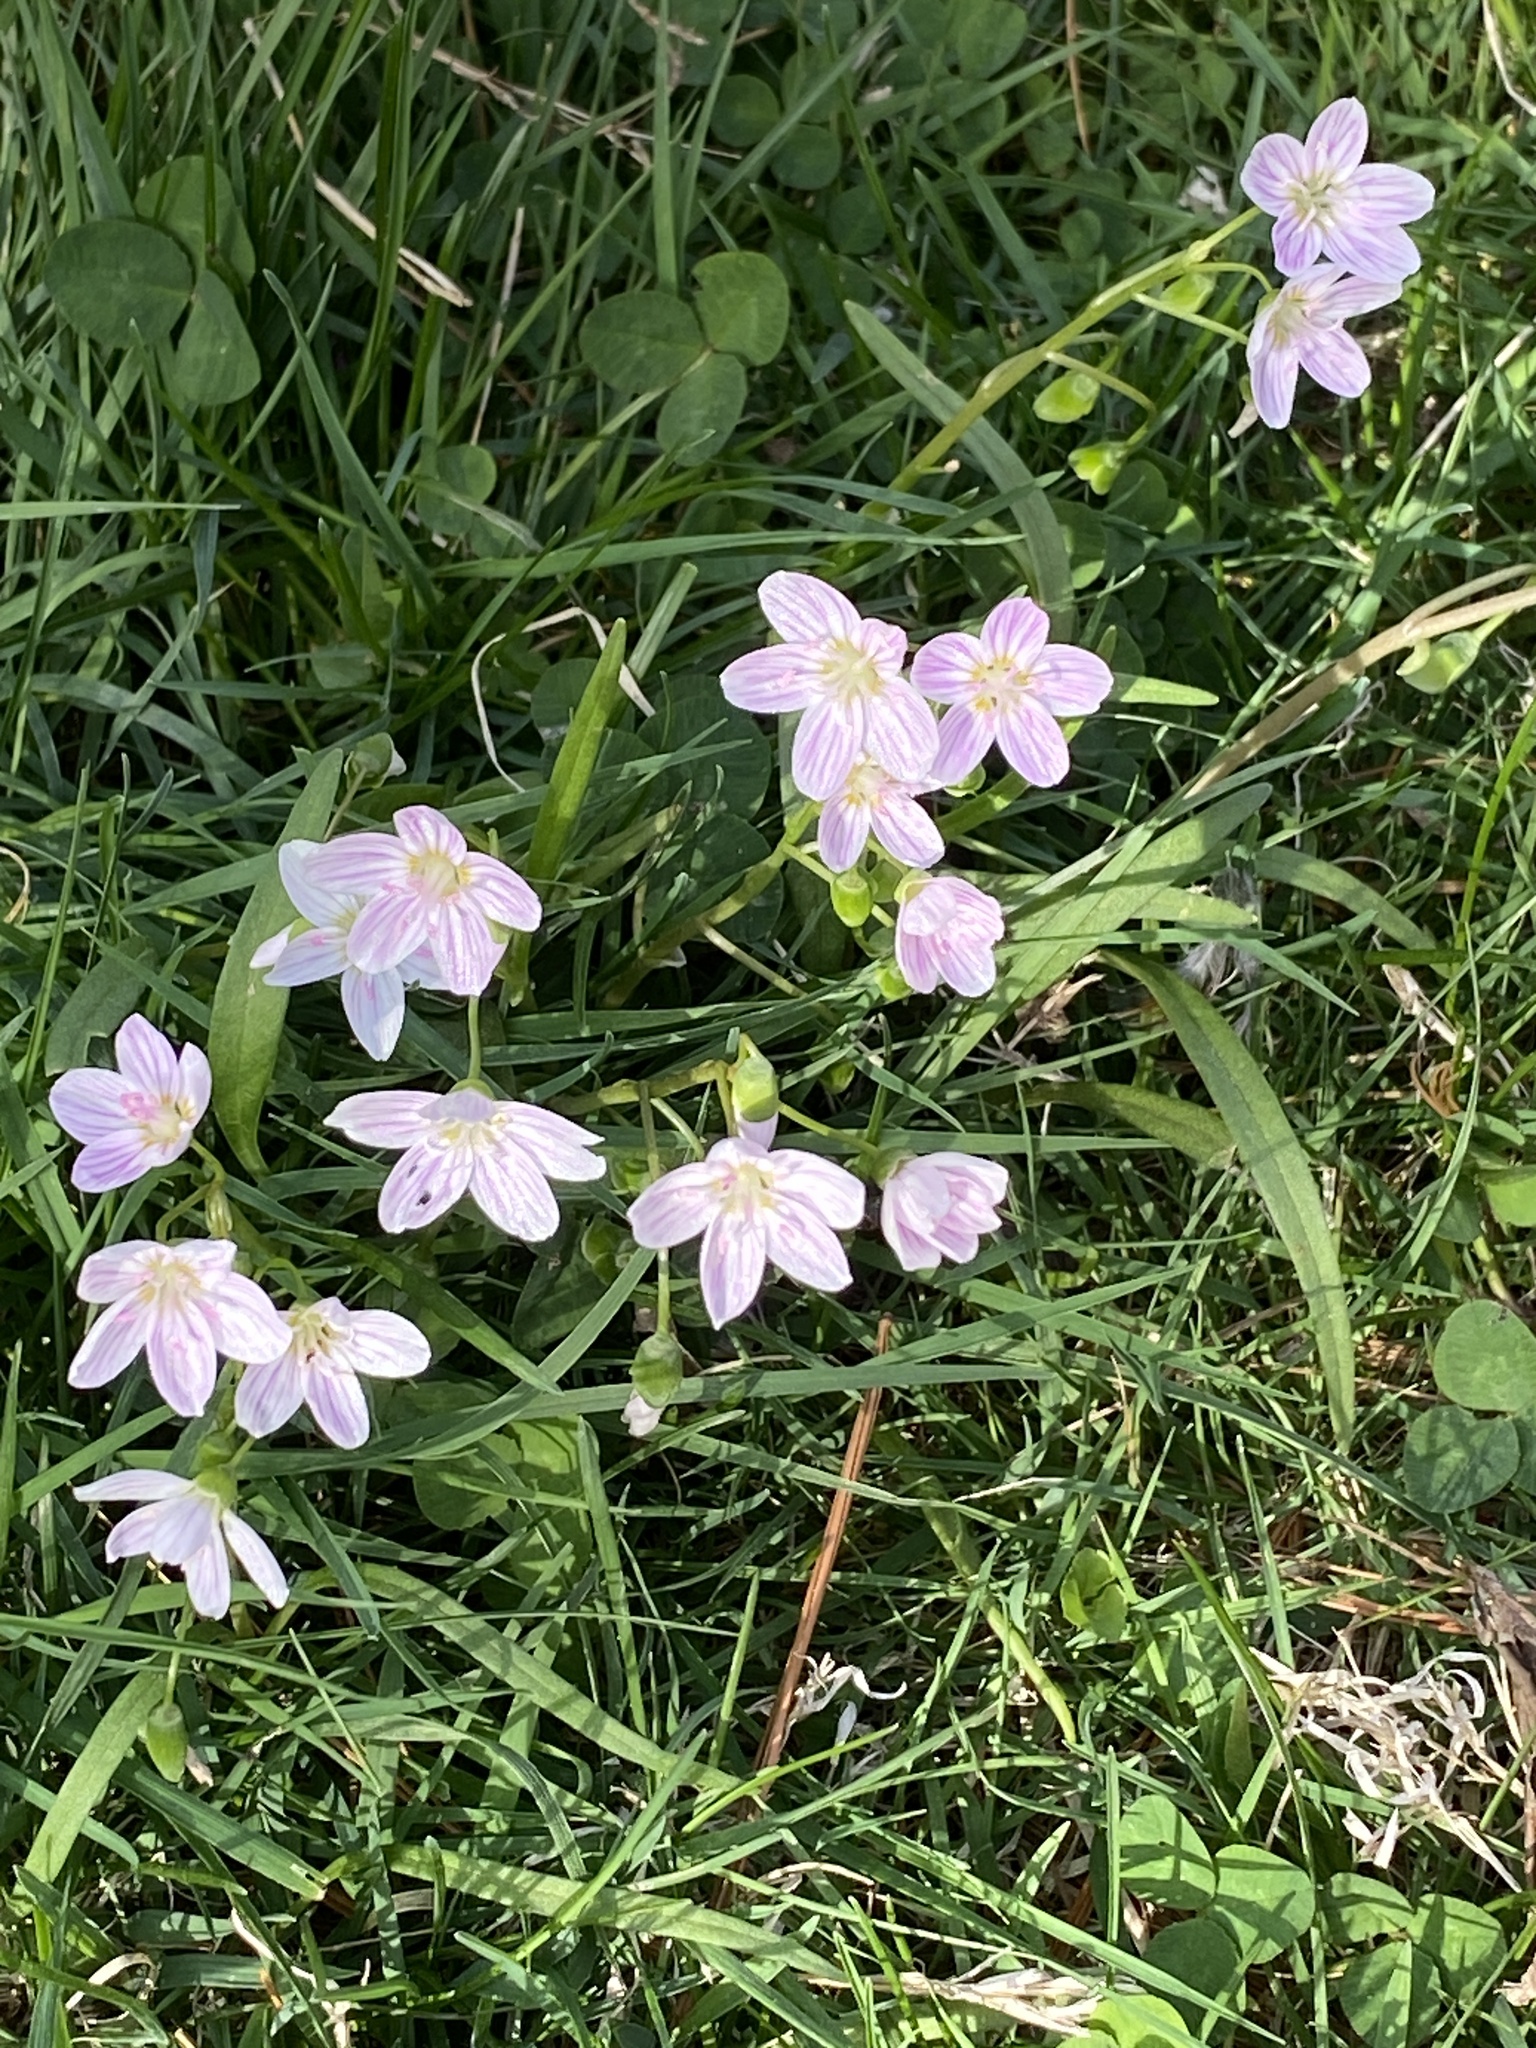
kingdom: Plantae
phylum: Tracheophyta
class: Magnoliopsida
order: Caryophyllales
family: Montiaceae
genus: Claytonia
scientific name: Claytonia virginica
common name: Virginia springbeauty
